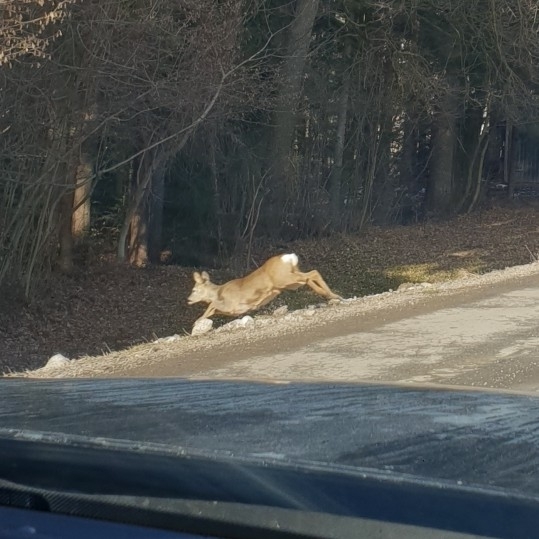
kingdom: Animalia
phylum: Chordata
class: Mammalia
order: Artiodactyla
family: Cervidae
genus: Capreolus
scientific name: Capreolus capreolus
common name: Western roe deer
